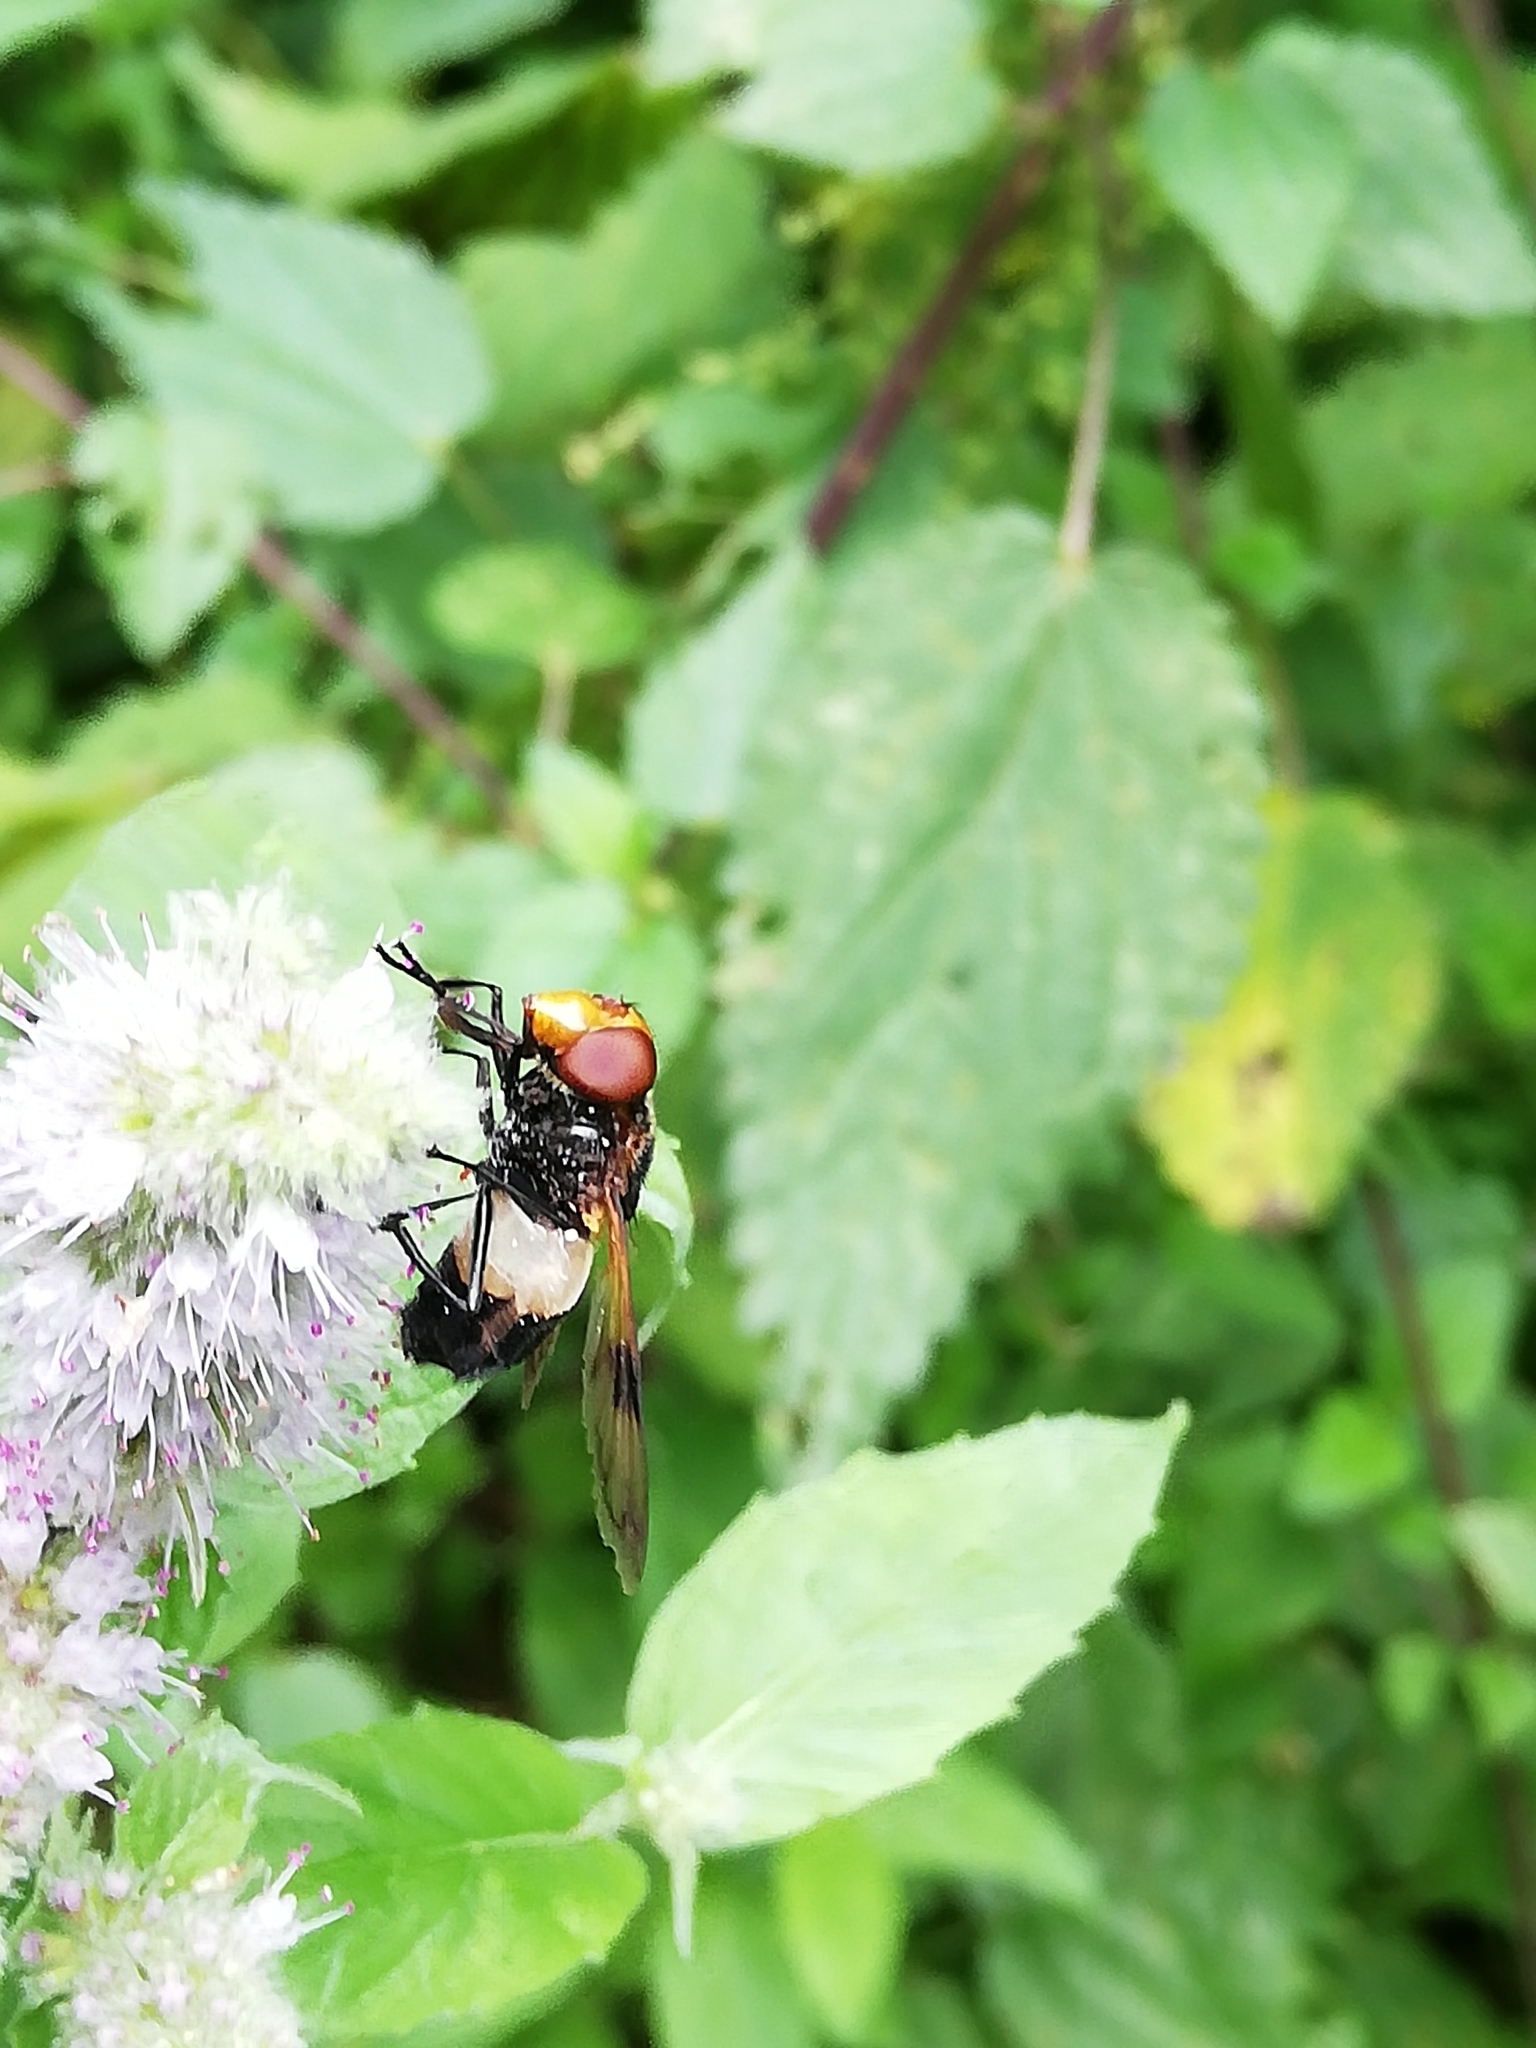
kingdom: Animalia
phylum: Arthropoda
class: Insecta
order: Diptera
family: Syrphidae
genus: Volucella
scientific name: Volucella pellucens
